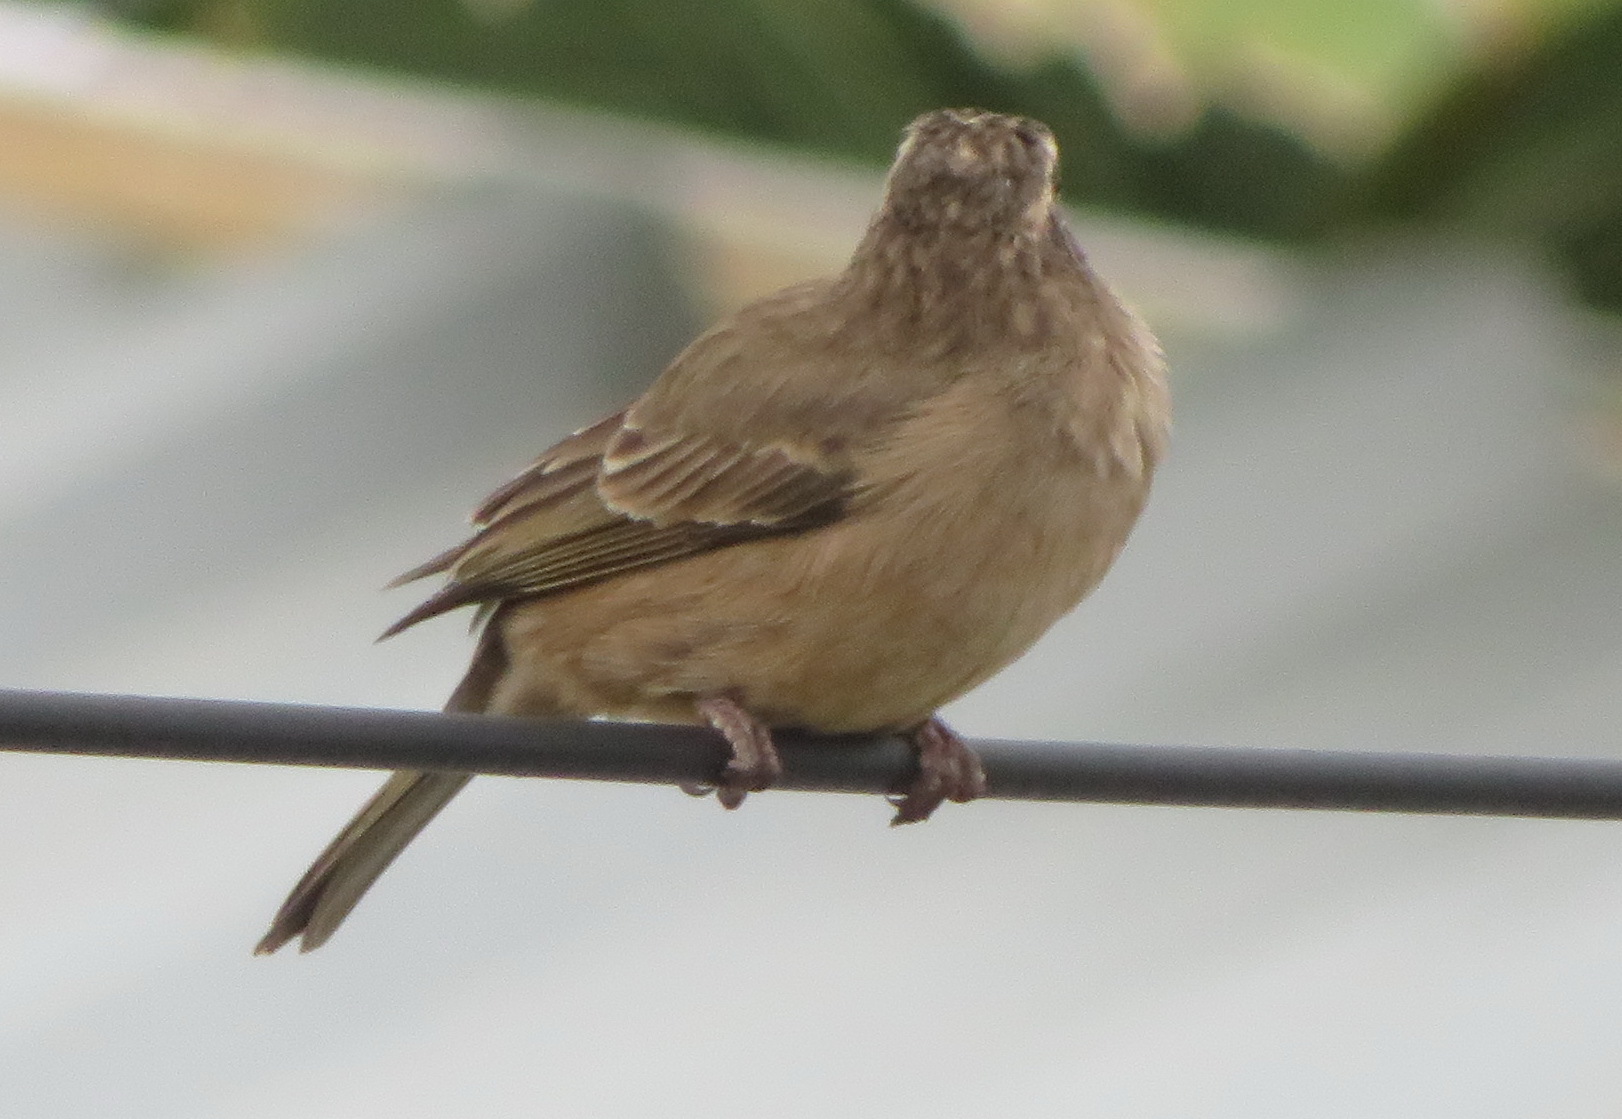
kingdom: Animalia
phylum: Chordata
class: Aves
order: Passeriformes
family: Fringillidae
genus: Crithagra
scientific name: Crithagra gularis
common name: Streaky-headed seedeater
